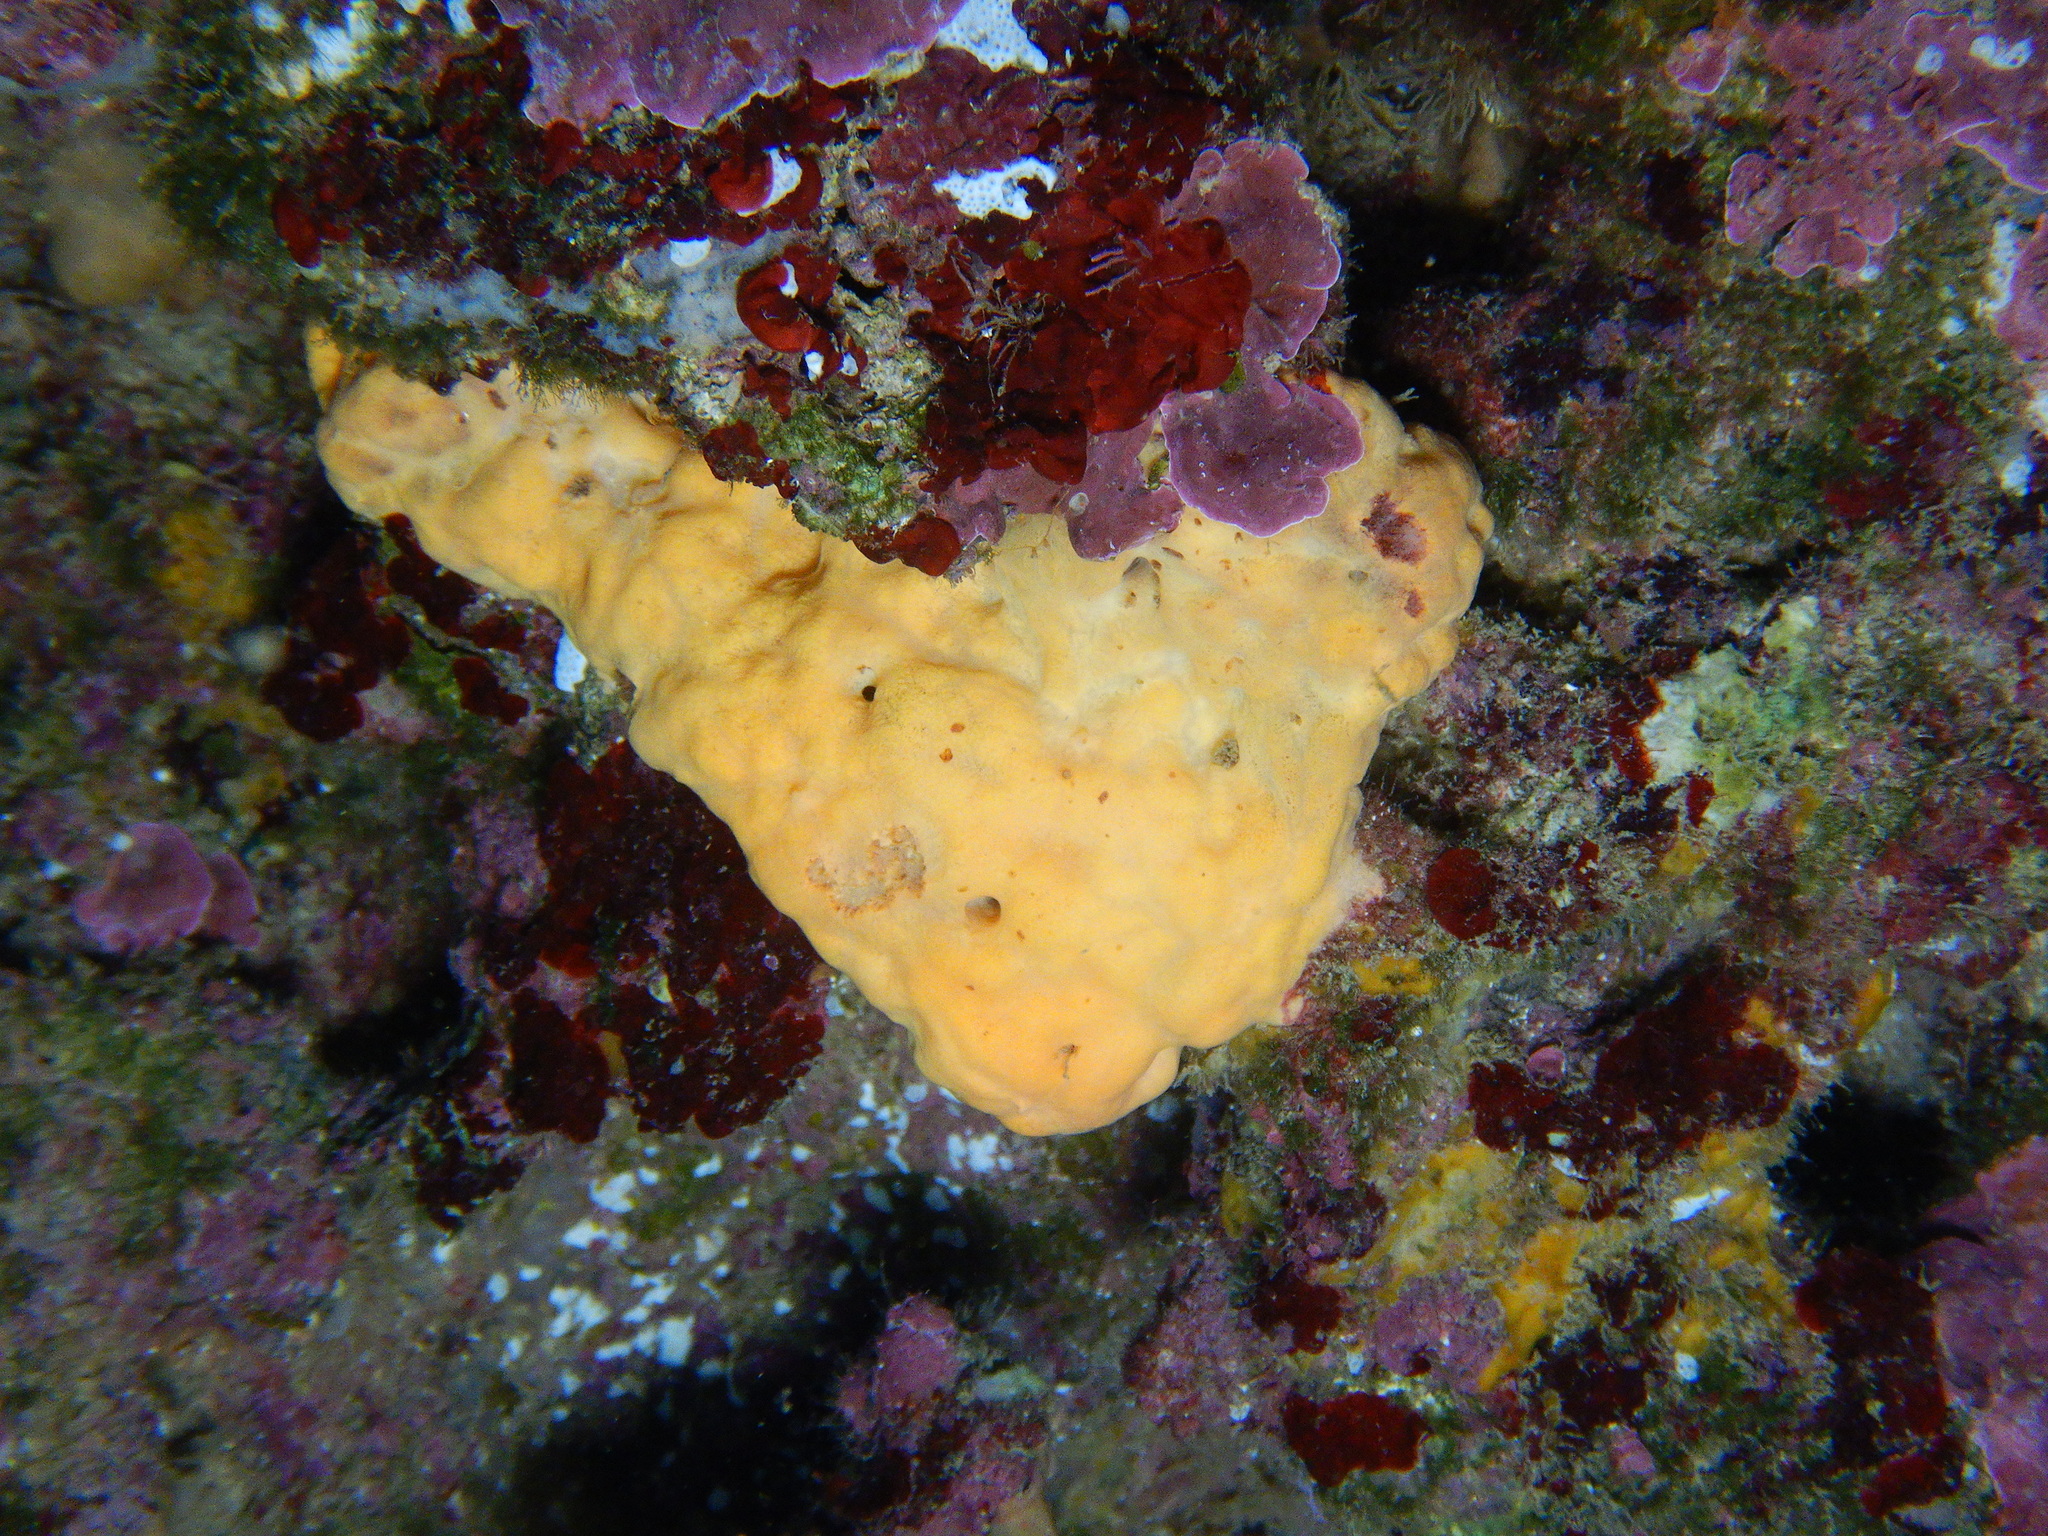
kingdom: Animalia
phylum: Porifera
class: Demospongiae
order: Agelasida
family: Agelasidae
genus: Agelas
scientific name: Agelas oroides
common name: Maltese sponge
